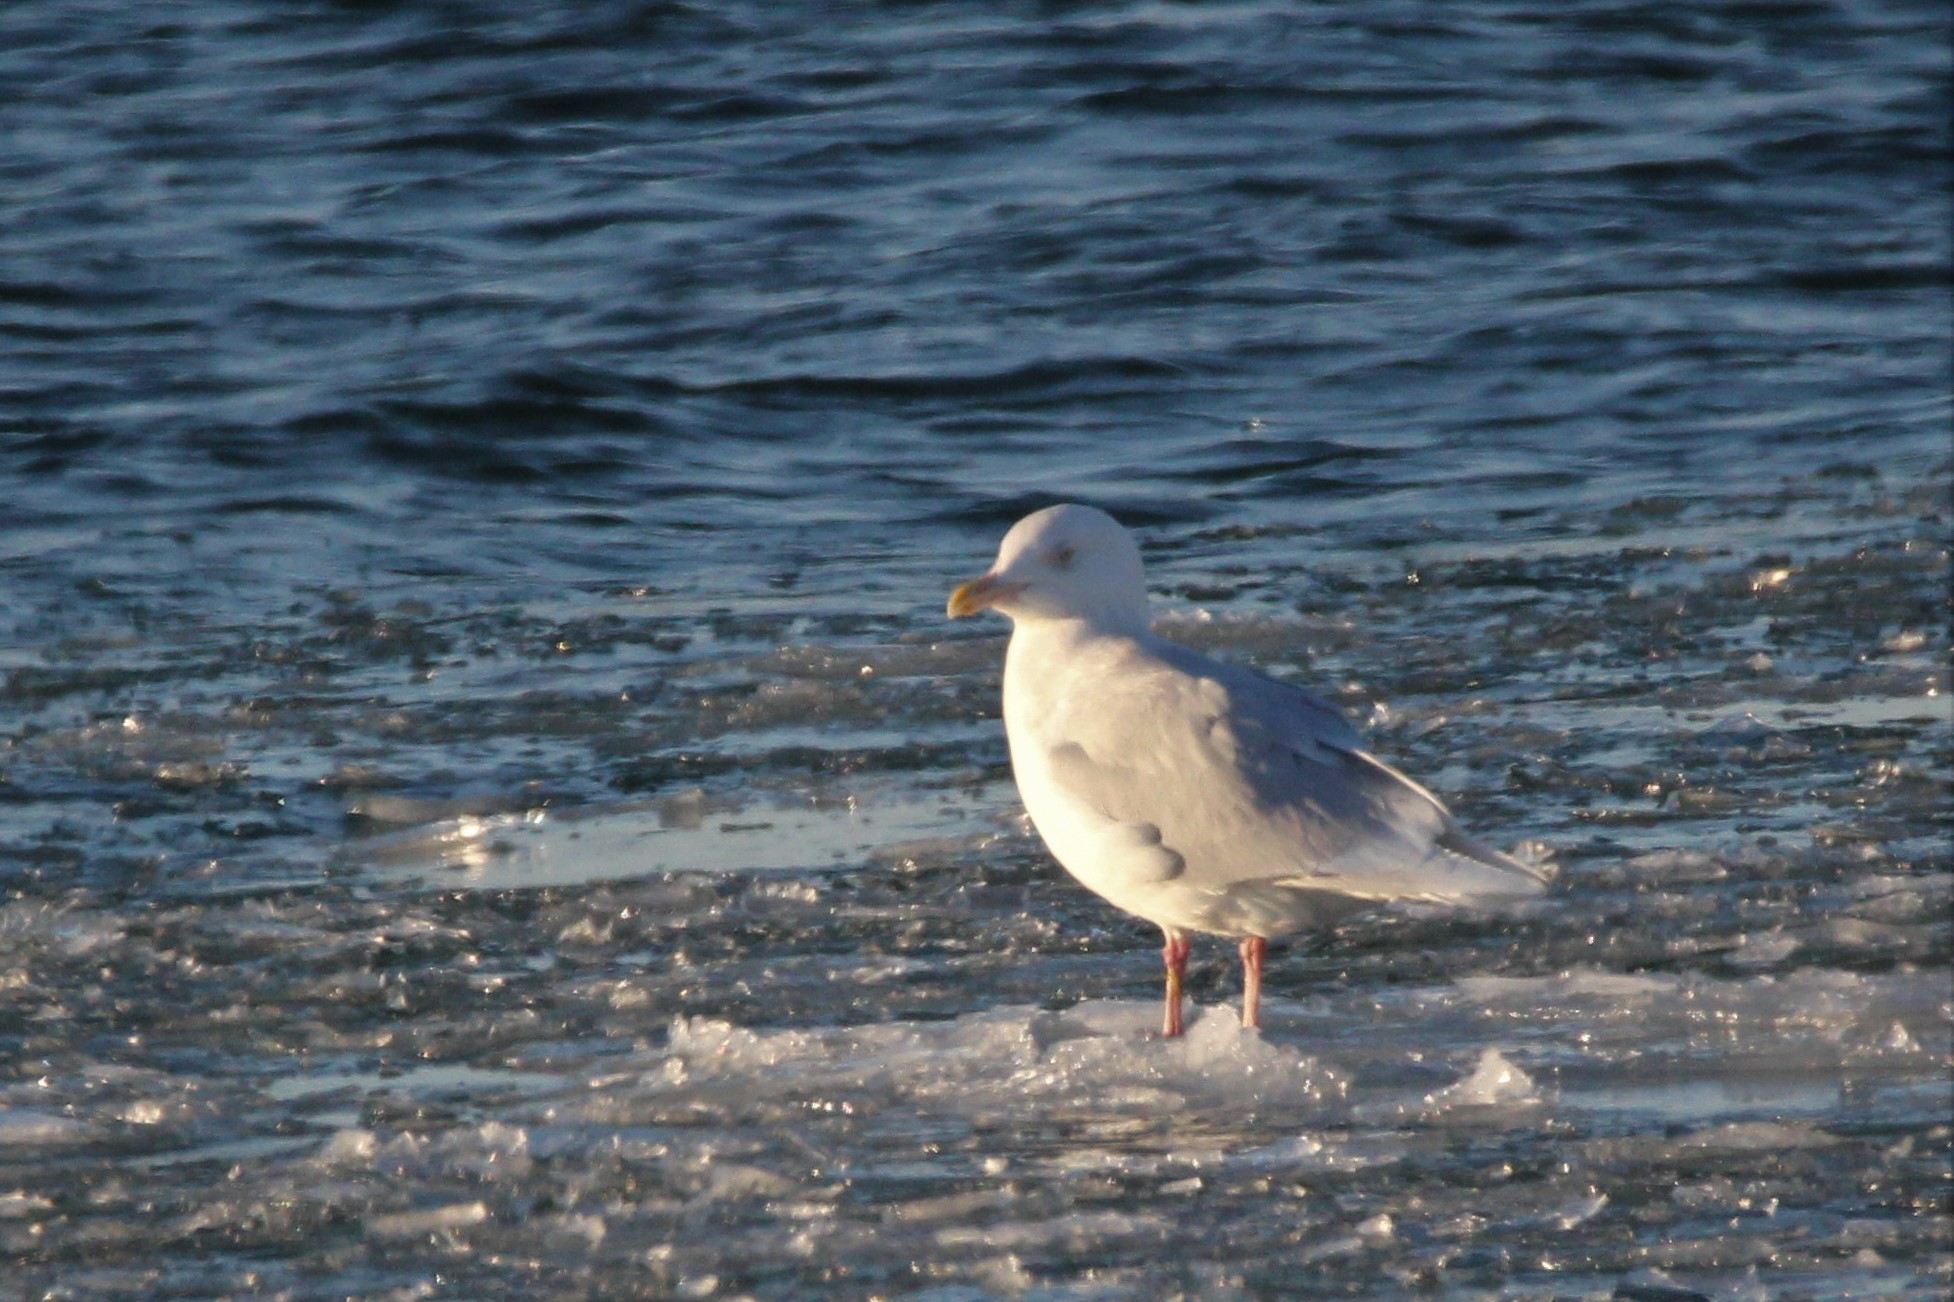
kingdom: Animalia
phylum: Chordata
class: Aves
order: Charadriiformes
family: Laridae
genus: Larus
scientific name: Larus hyperboreus
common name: Glaucous gull
